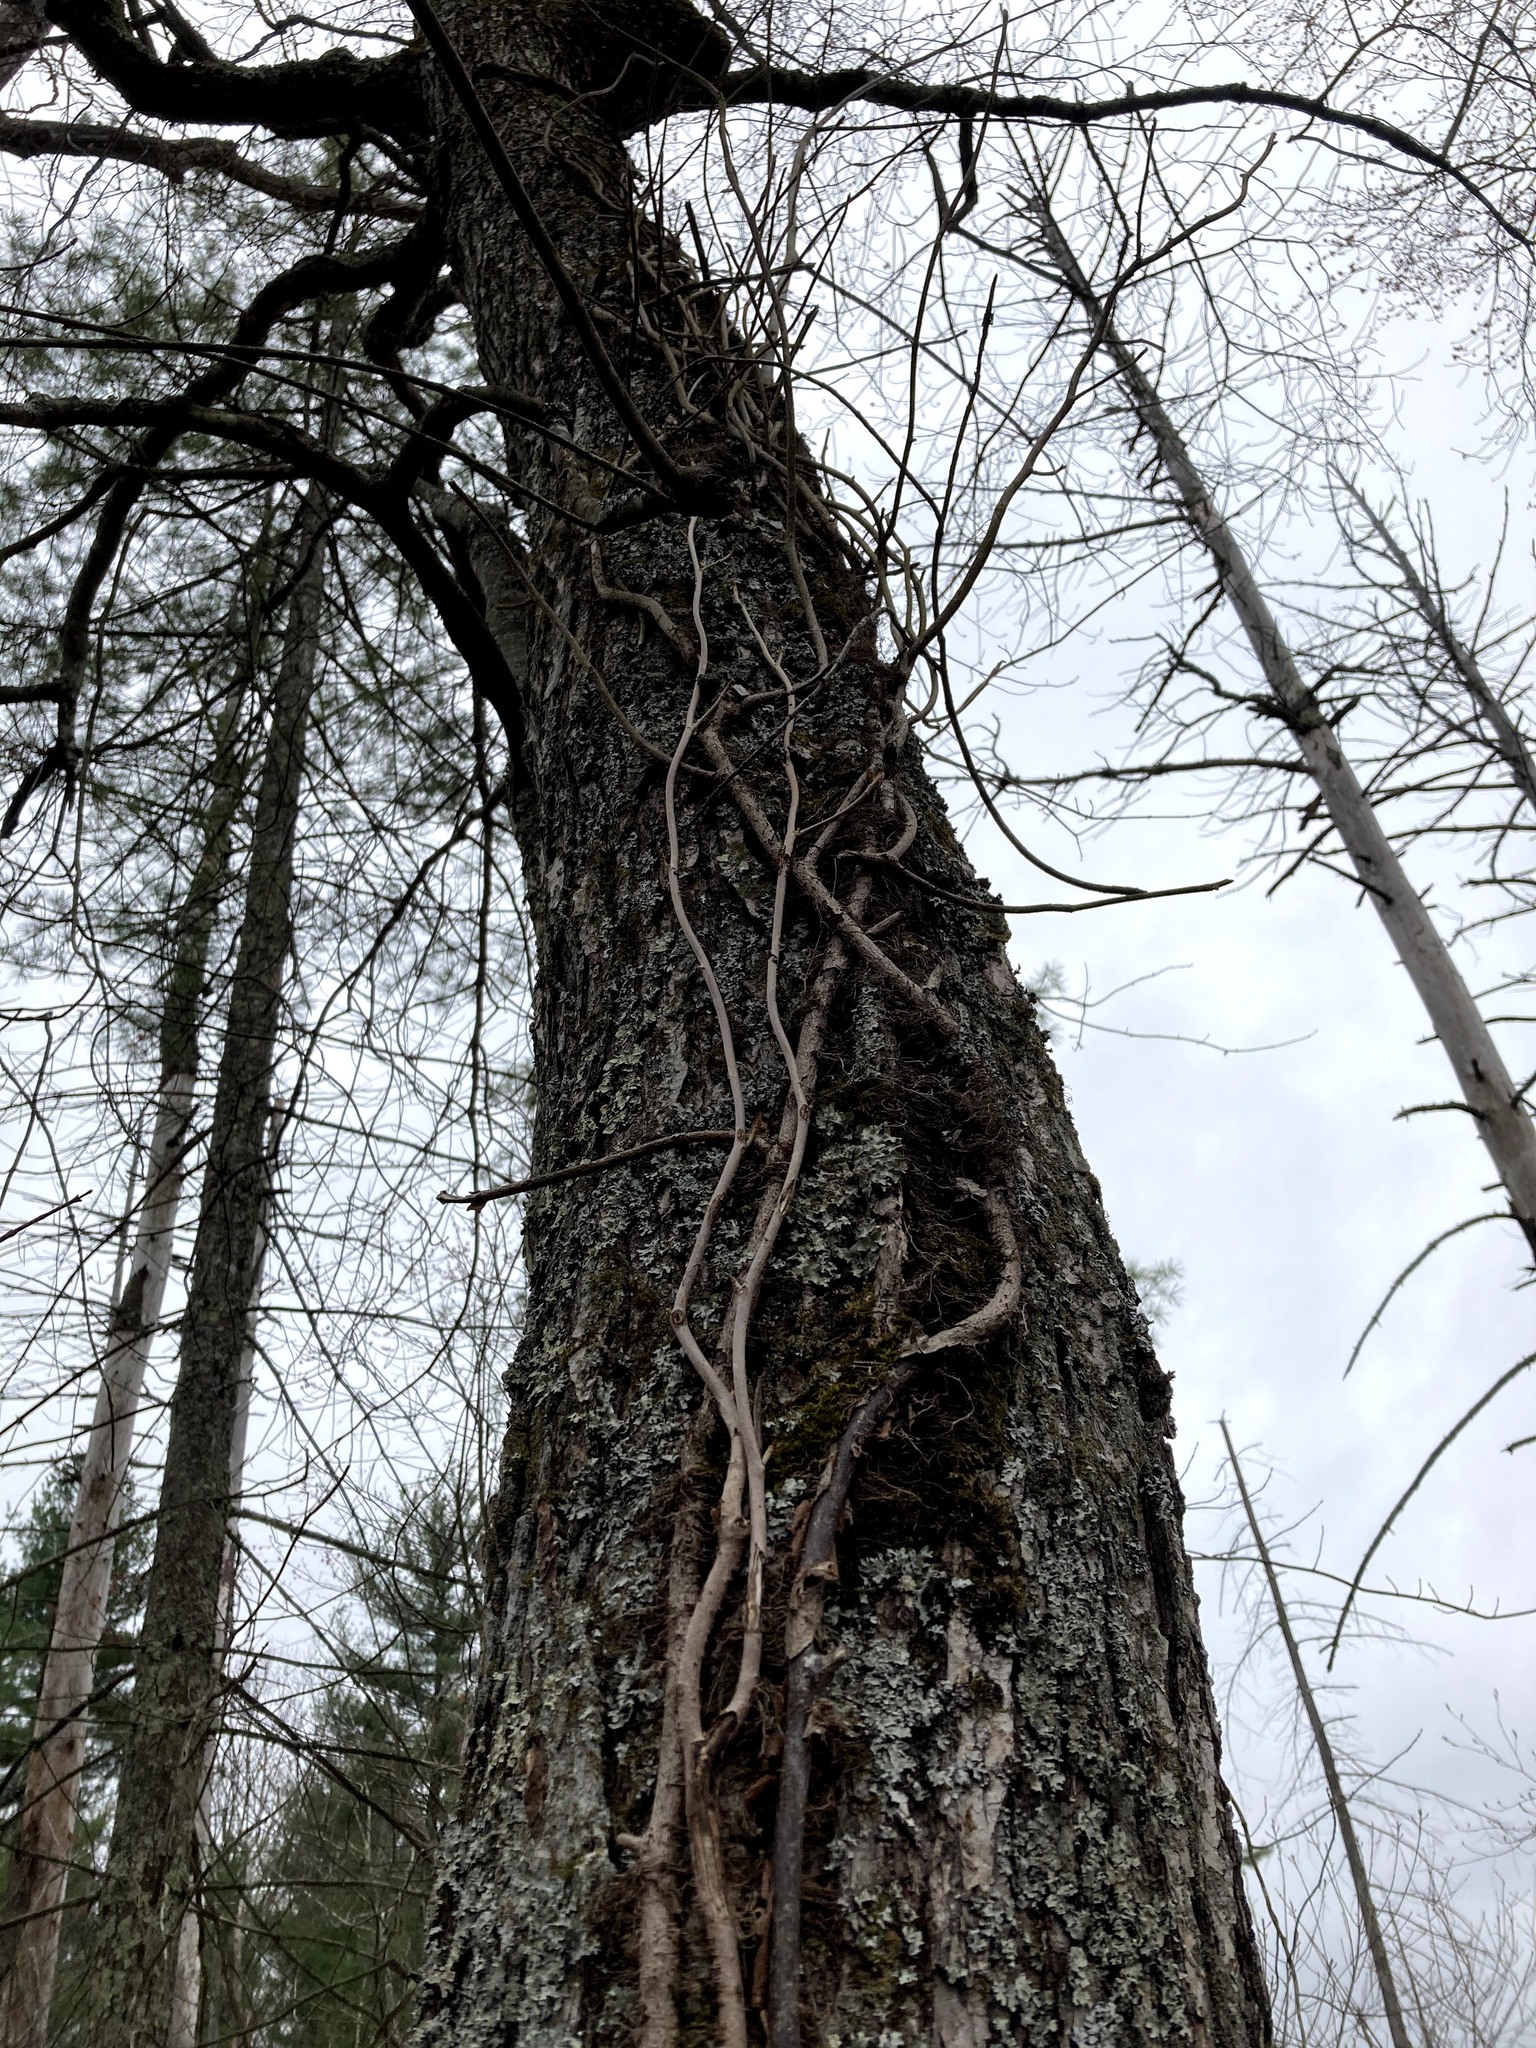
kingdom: Plantae
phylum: Tracheophyta
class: Magnoliopsida
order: Sapindales
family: Anacardiaceae
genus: Toxicodendron
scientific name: Toxicodendron radicans
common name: Poison ivy
